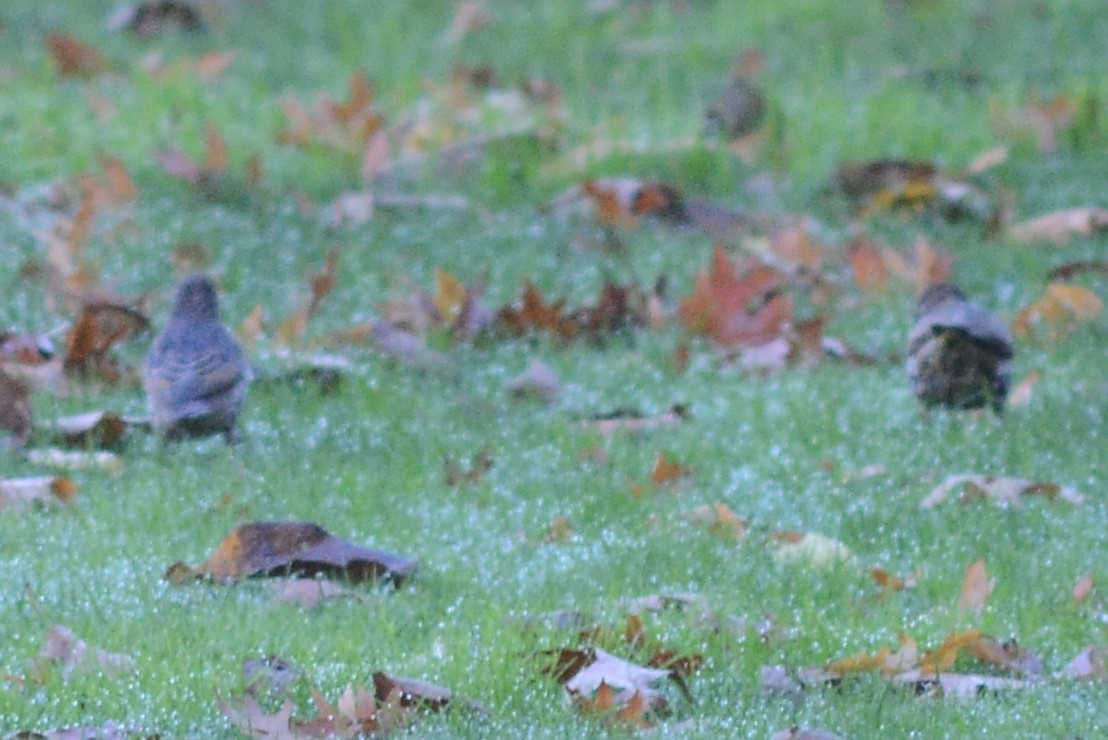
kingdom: Animalia
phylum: Chordata
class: Aves
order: Passeriformes
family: Sturnidae
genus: Sturnus
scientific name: Sturnus vulgaris
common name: Common starling
